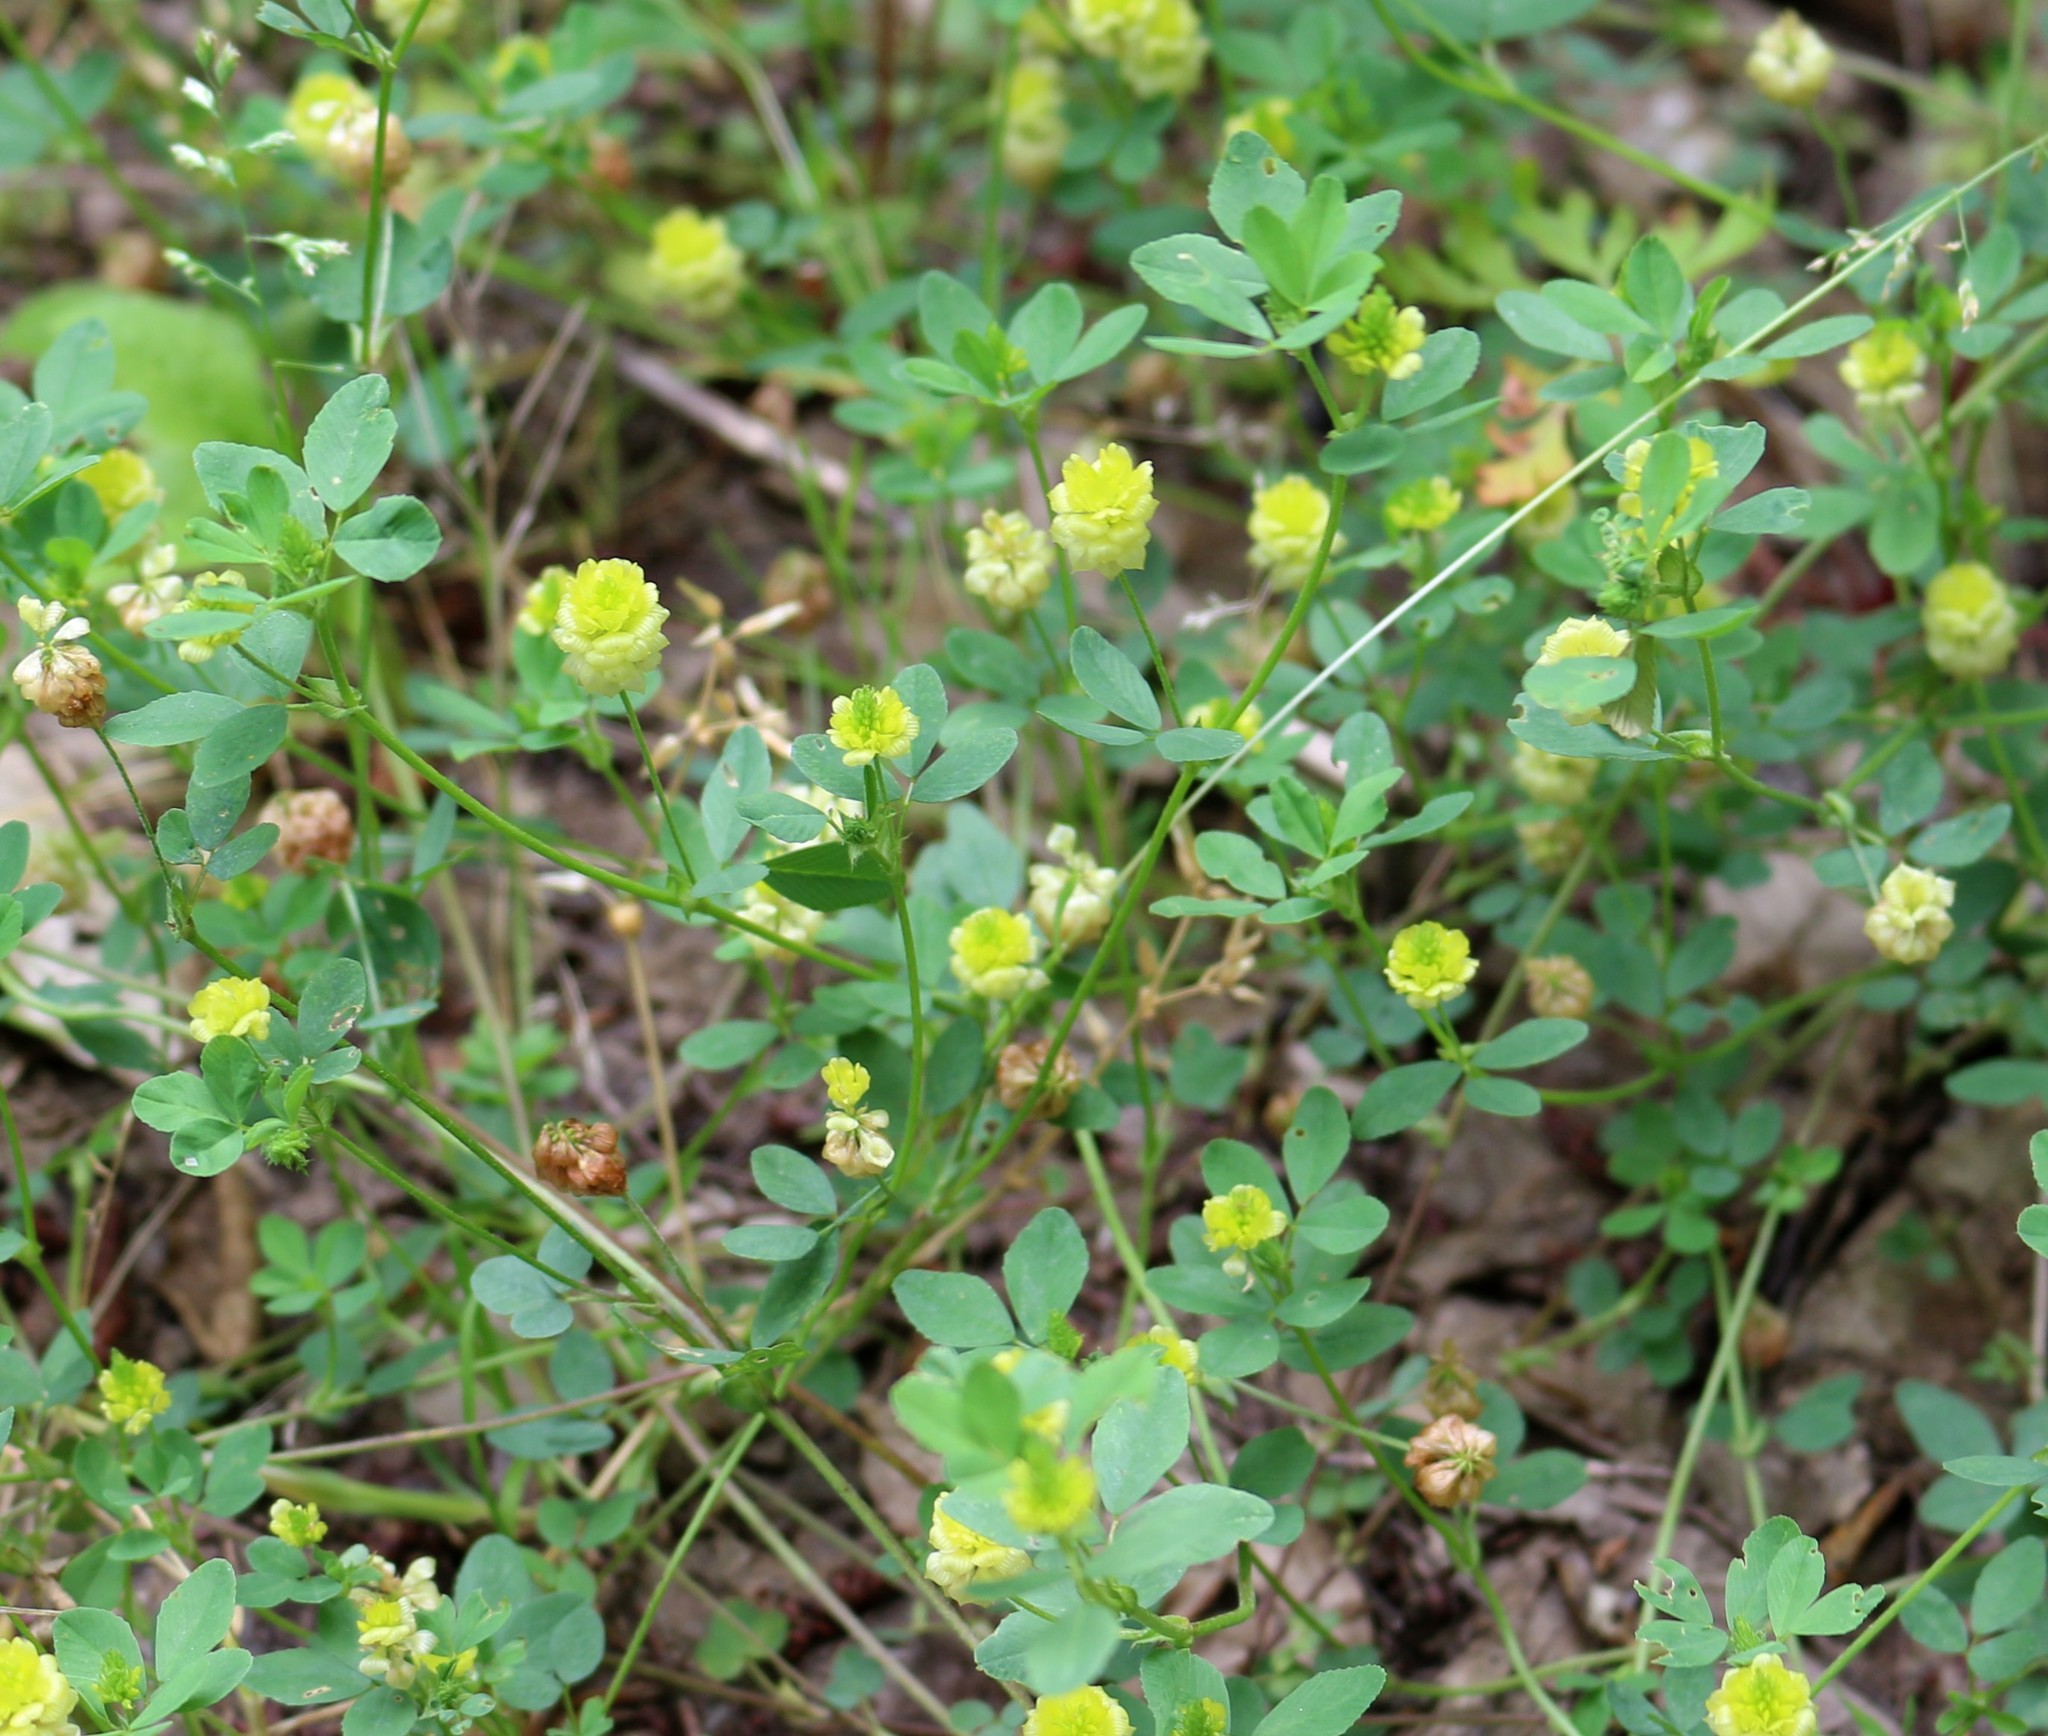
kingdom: Plantae
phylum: Tracheophyta
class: Magnoliopsida
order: Fabales
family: Fabaceae
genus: Trifolium
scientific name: Trifolium campestre
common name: Field clover
